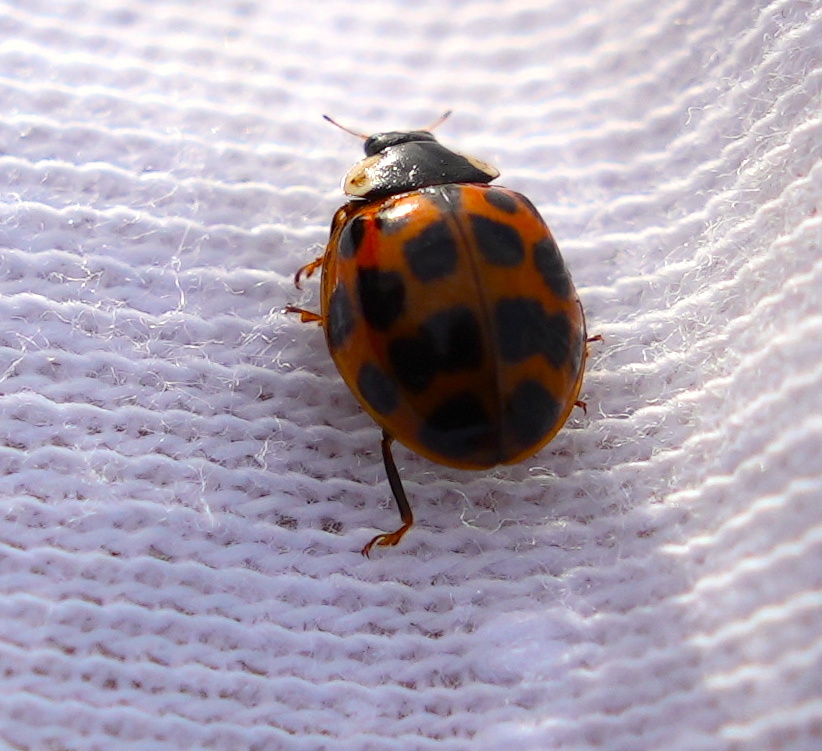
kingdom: Animalia
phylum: Arthropoda
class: Insecta
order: Coleoptera
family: Coccinellidae
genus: Harmonia
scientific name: Harmonia axyridis
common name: Harlequin ladybird
